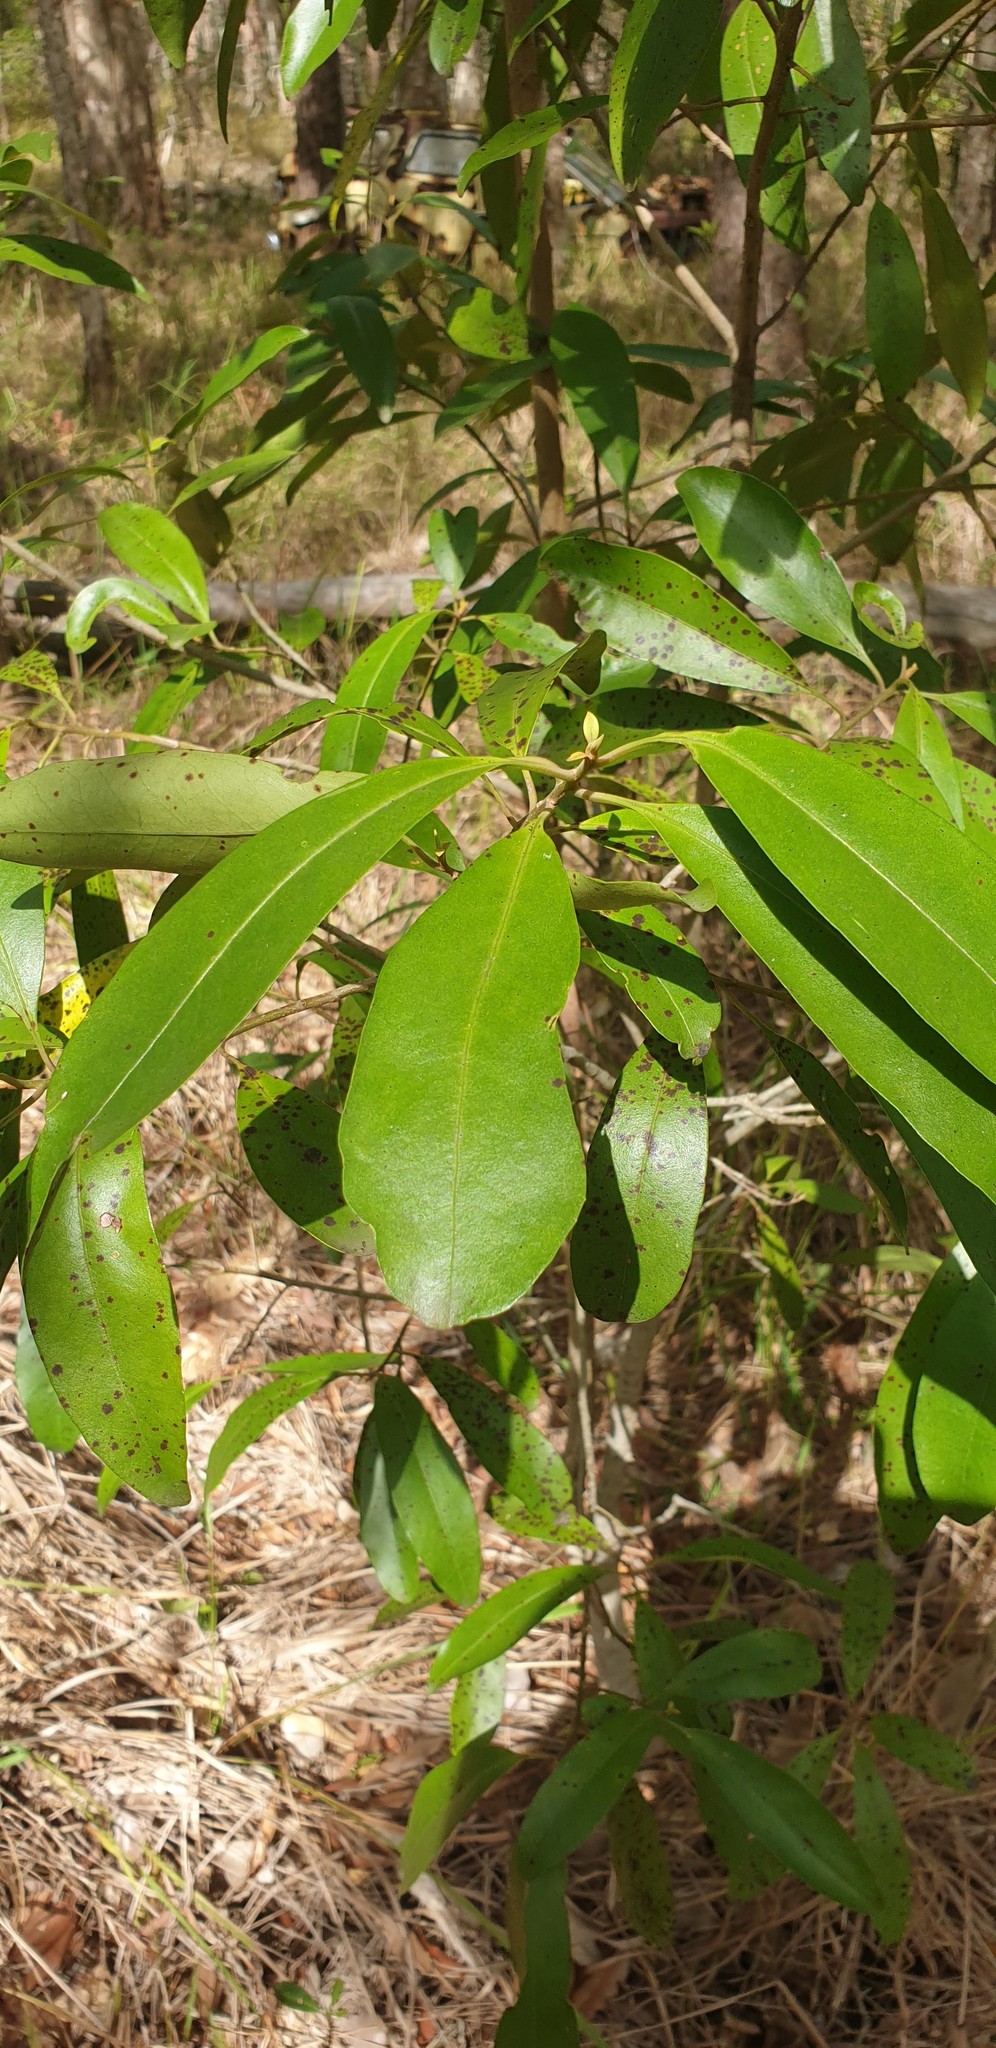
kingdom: Plantae
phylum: Tracheophyta
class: Magnoliopsida
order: Ericales
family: Primulaceae
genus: Myrsine
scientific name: Myrsine howittiana
